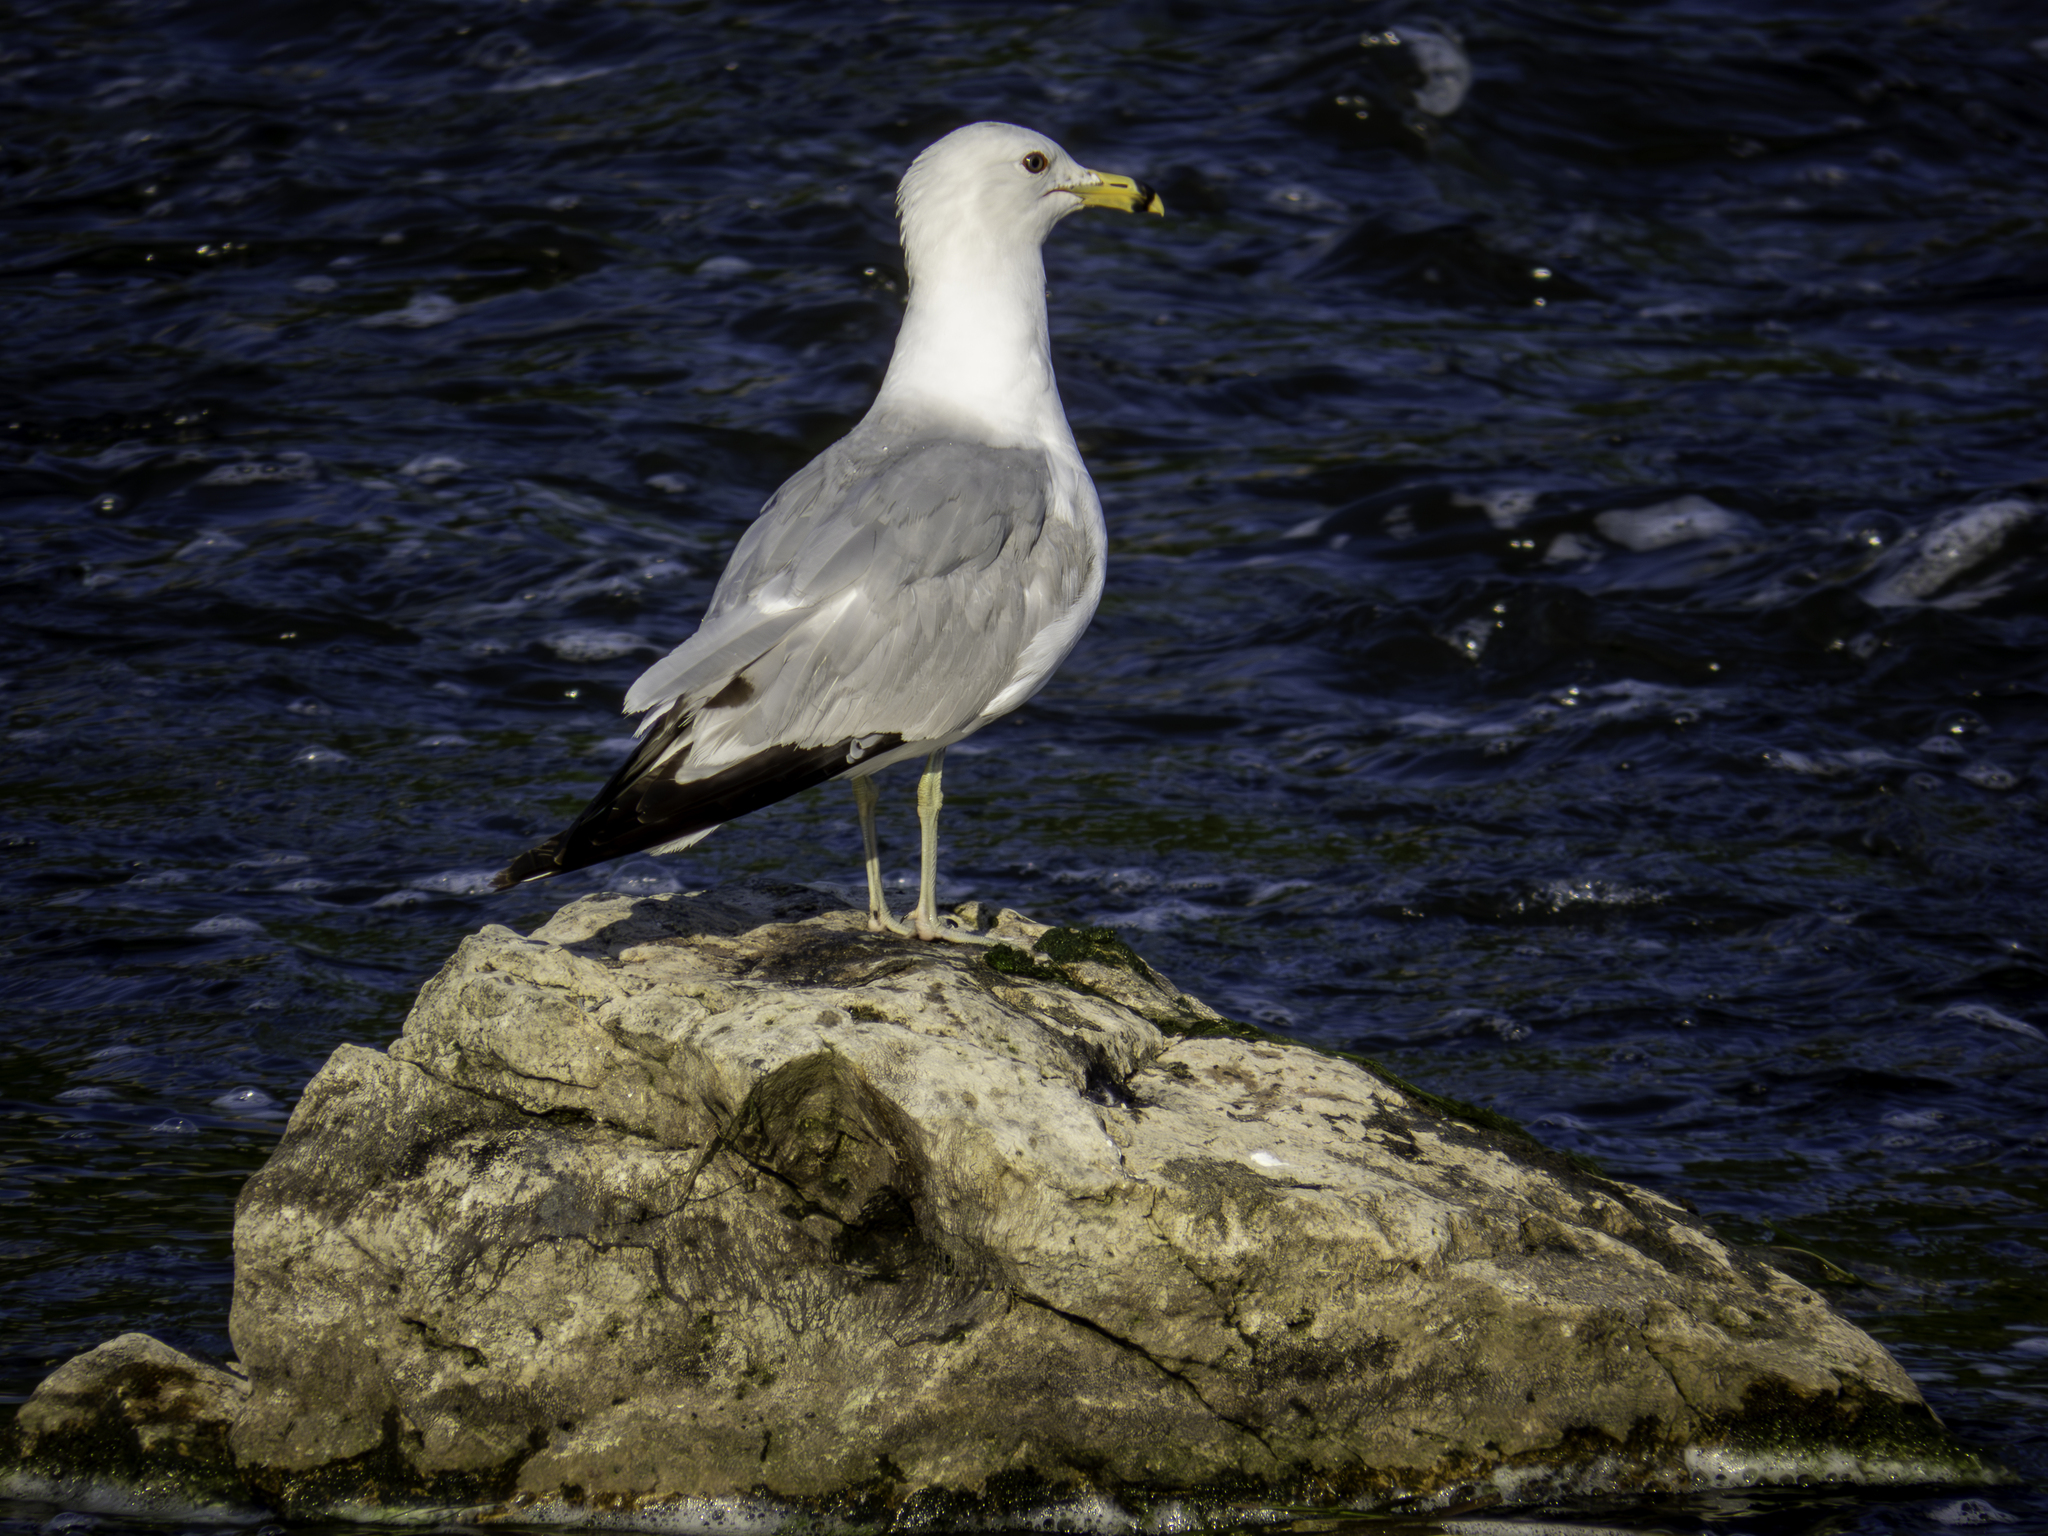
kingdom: Animalia
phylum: Chordata
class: Aves
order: Charadriiformes
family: Laridae
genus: Larus
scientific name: Larus delawarensis
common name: Ring-billed gull
